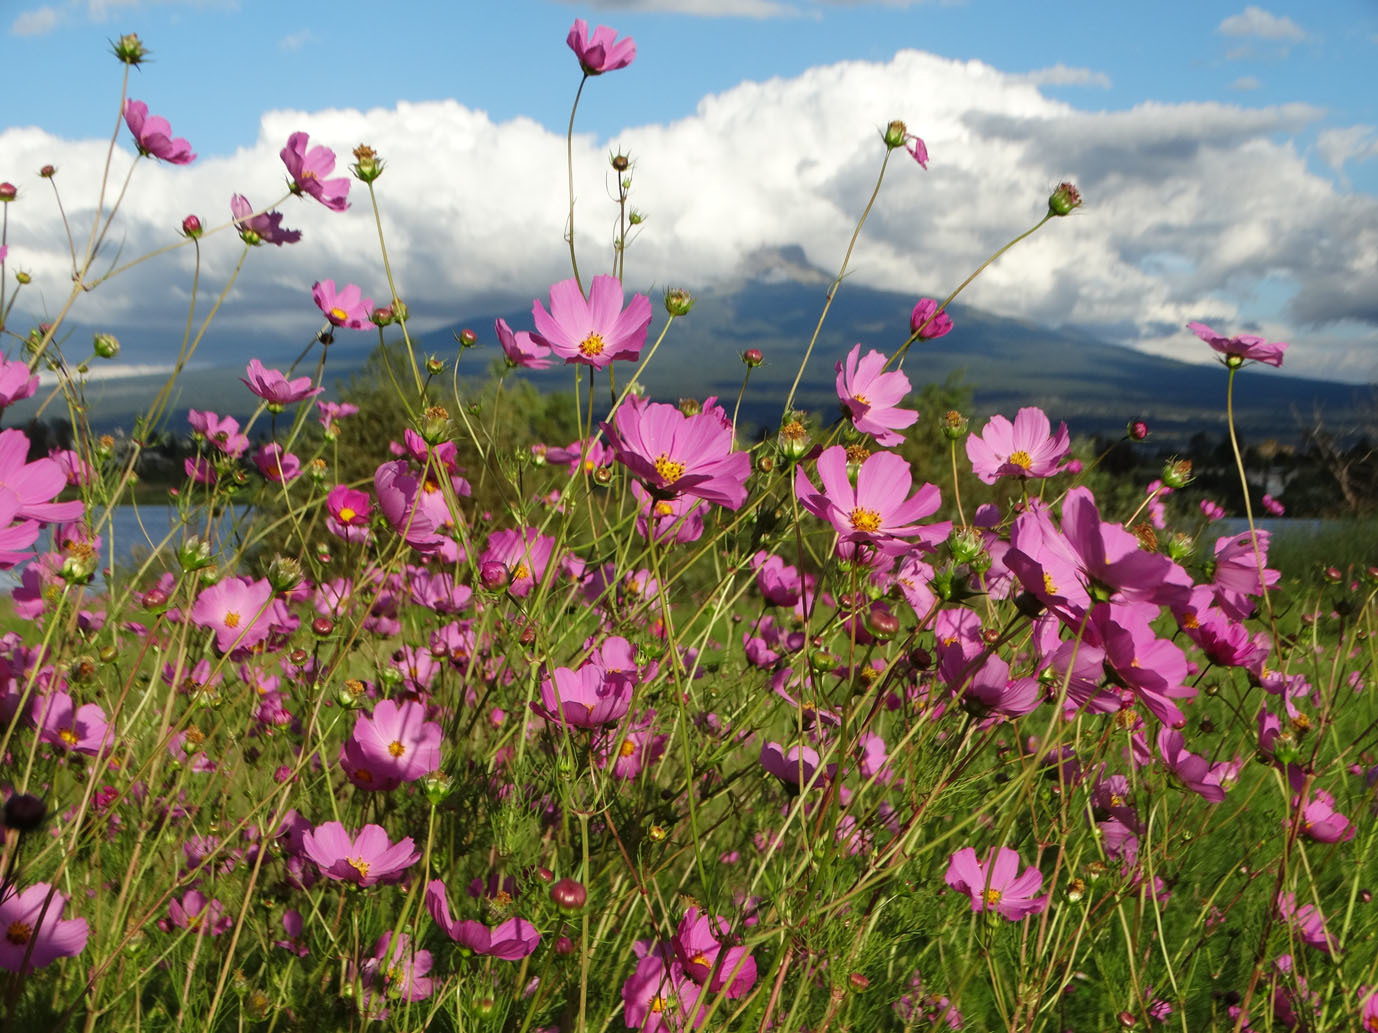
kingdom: Plantae
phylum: Tracheophyta
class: Magnoliopsida
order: Asterales
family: Asteraceae
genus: Cosmos
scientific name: Cosmos bipinnatus
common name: Garden cosmos
